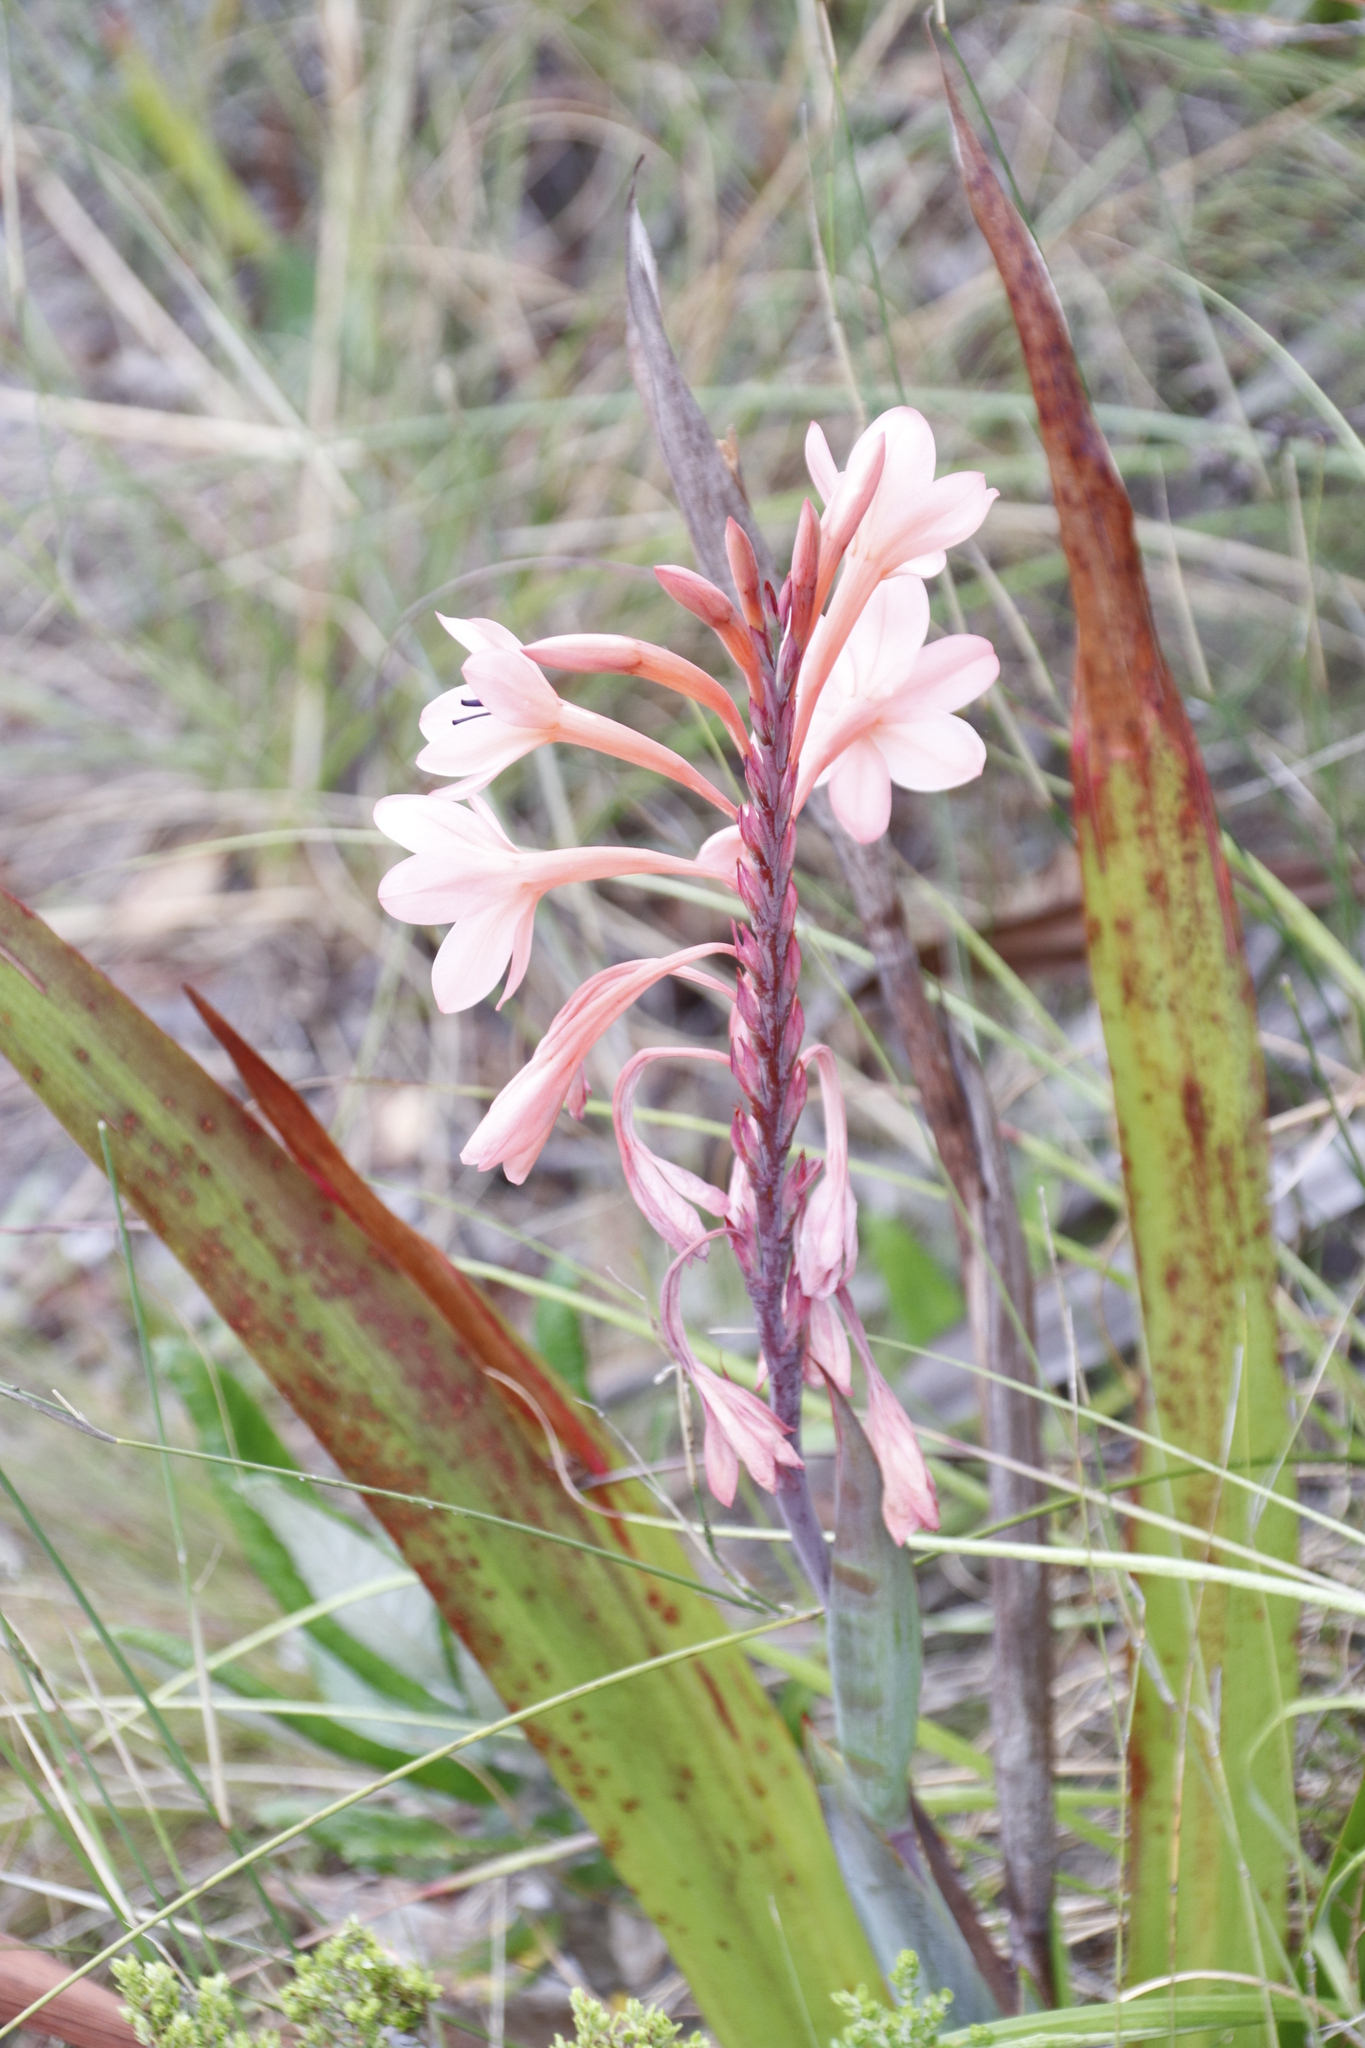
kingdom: Plantae
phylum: Tracheophyta
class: Liliopsida
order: Asparagales
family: Iridaceae
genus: Watsonia
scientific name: Watsonia tabularis
